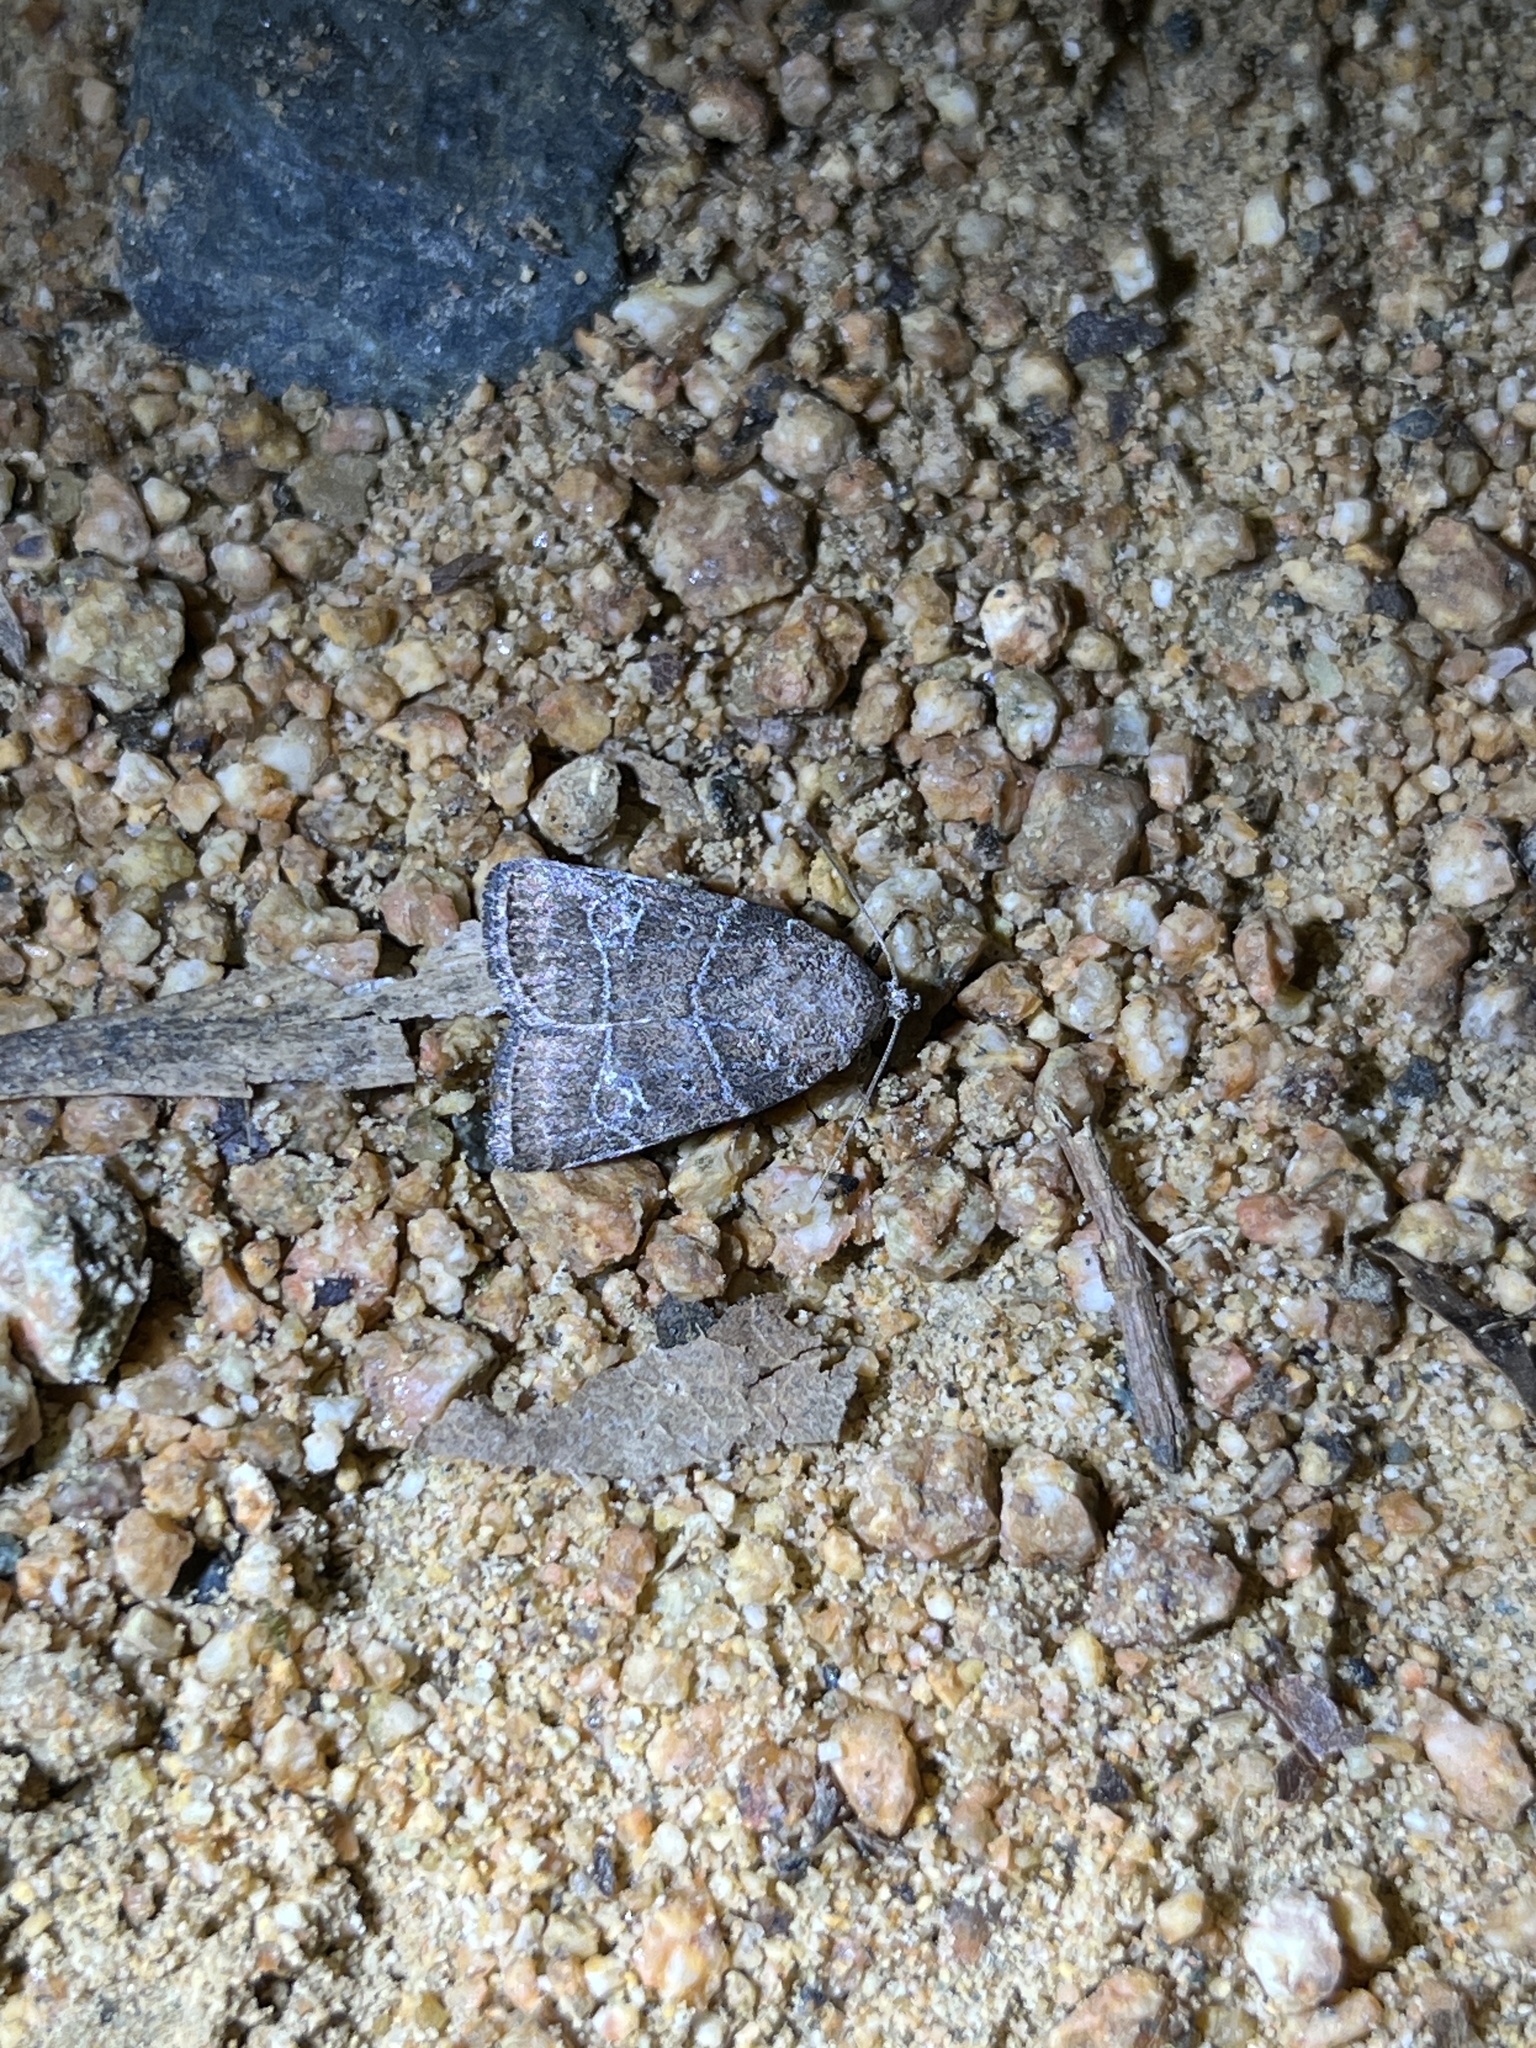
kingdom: Animalia
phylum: Arthropoda
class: Insecta
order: Lepidoptera
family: Noctuidae
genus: Elaphria
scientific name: Elaphria grata
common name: Grateful midget moth
